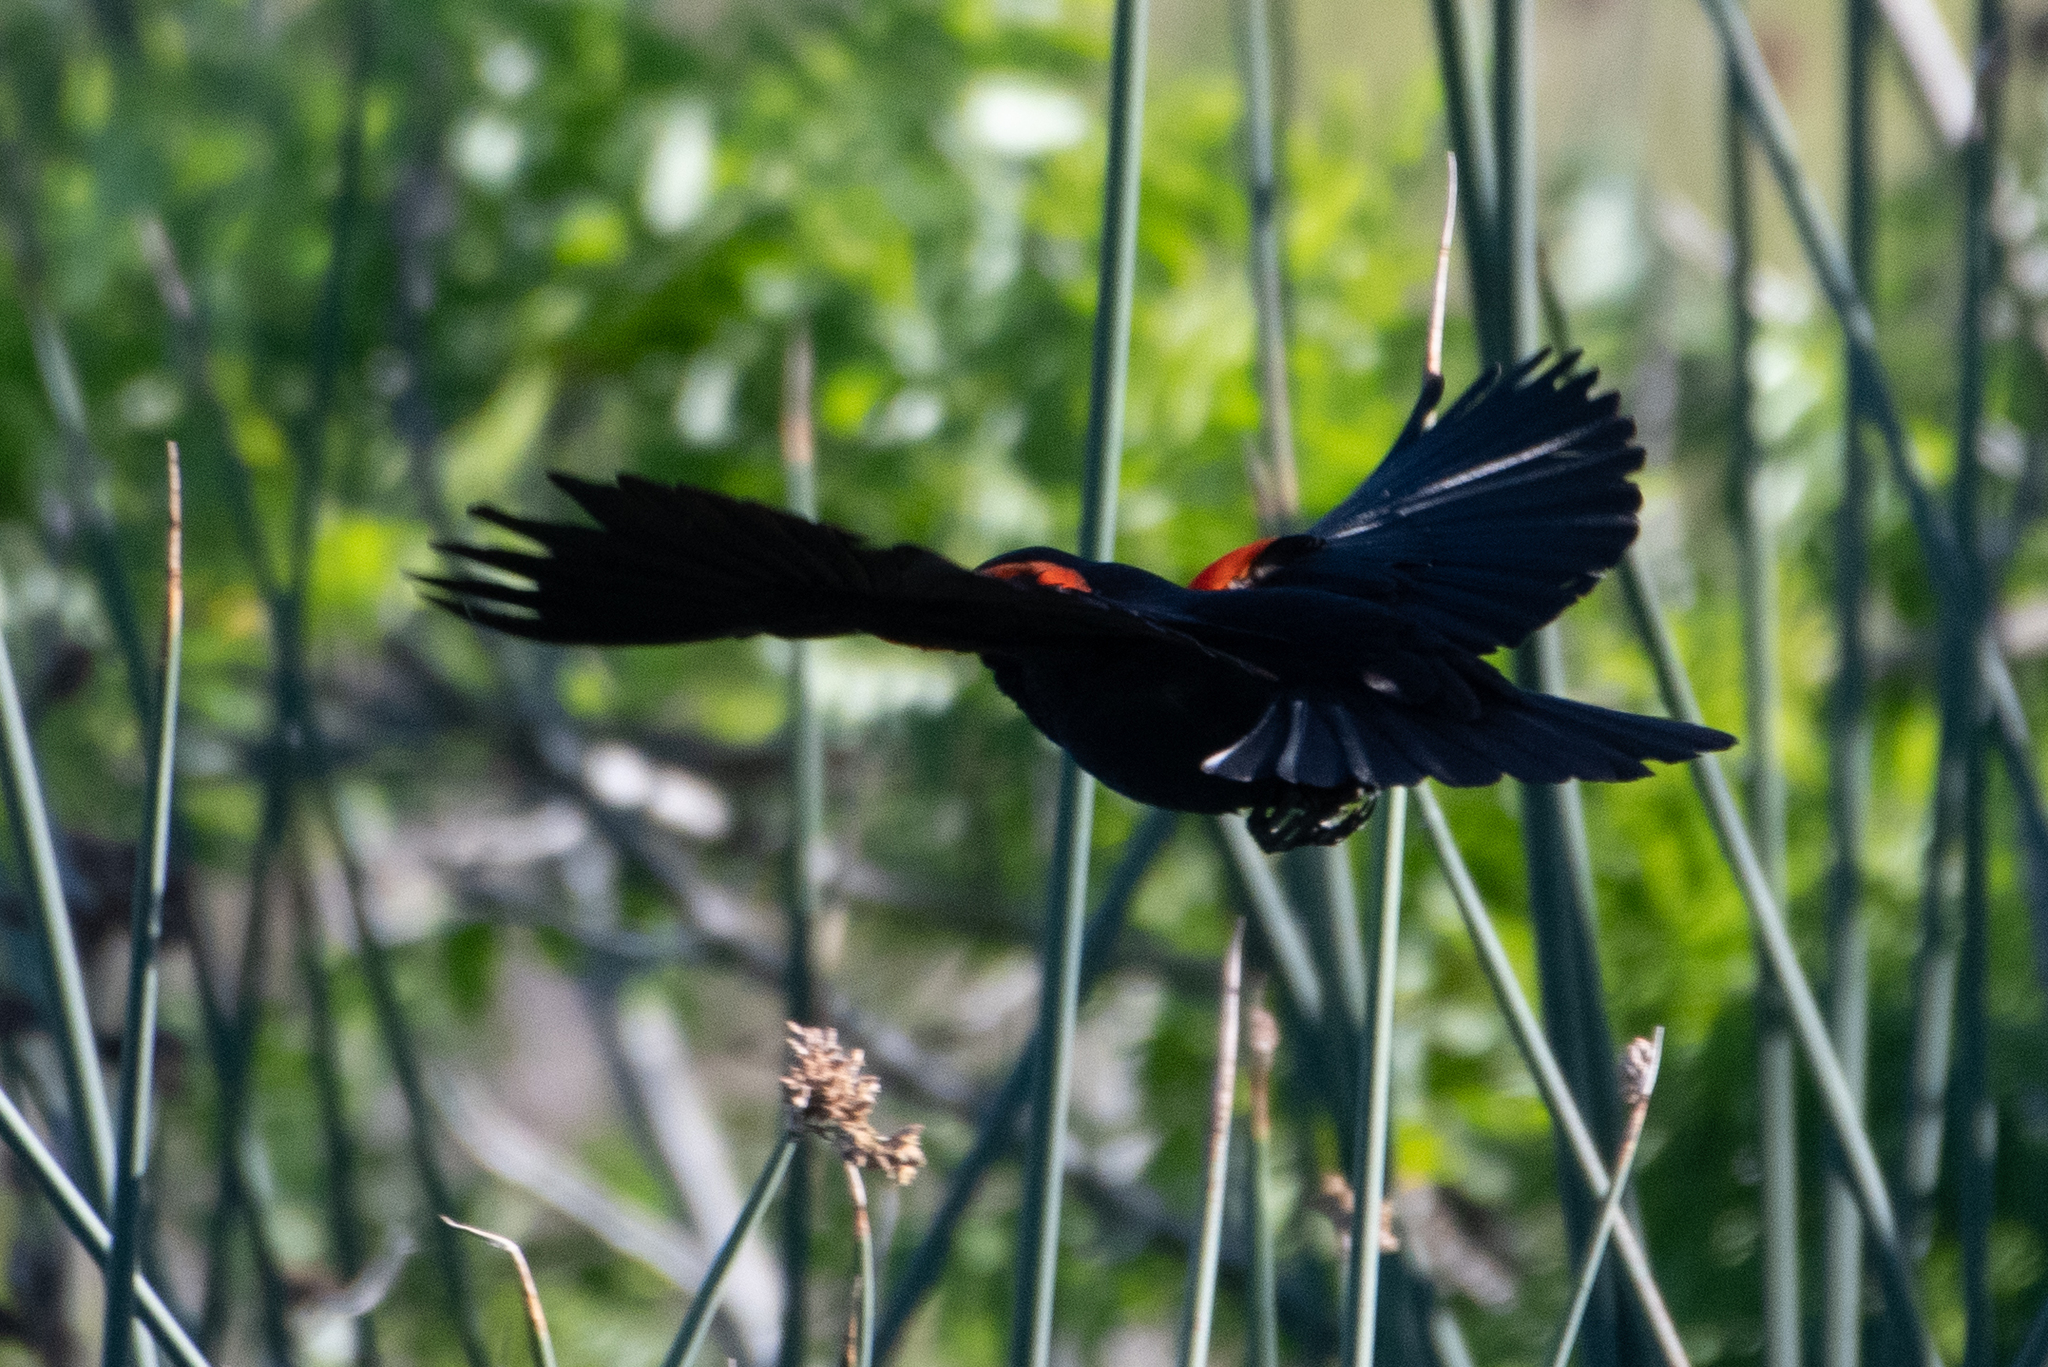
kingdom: Animalia
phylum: Chordata
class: Aves
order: Passeriformes
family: Icteridae
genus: Agelaius
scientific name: Agelaius phoeniceus
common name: Red-winged blackbird
